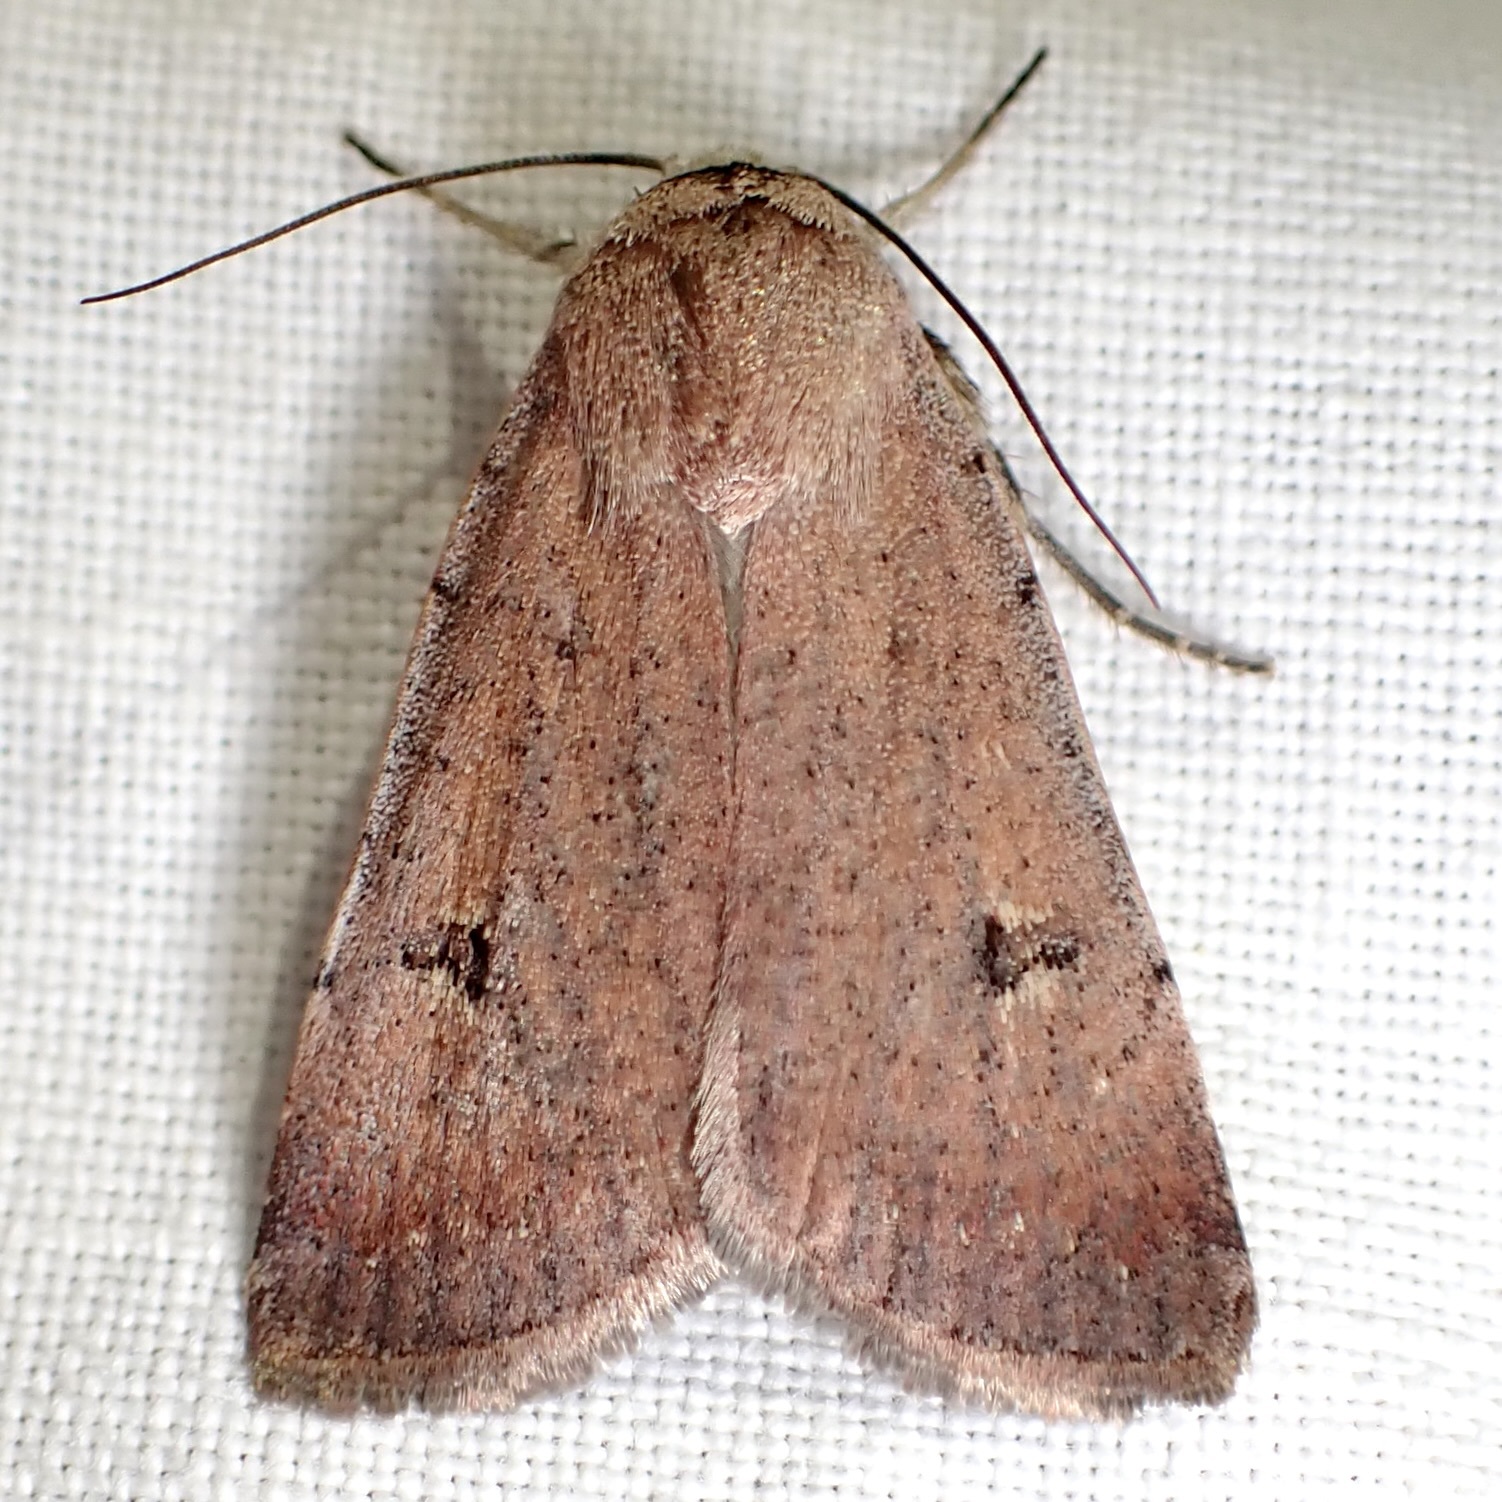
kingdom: Animalia
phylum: Arthropoda
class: Insecta
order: Lepidoptera
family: Noctuidae
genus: Anicla
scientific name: Anicla biformata
